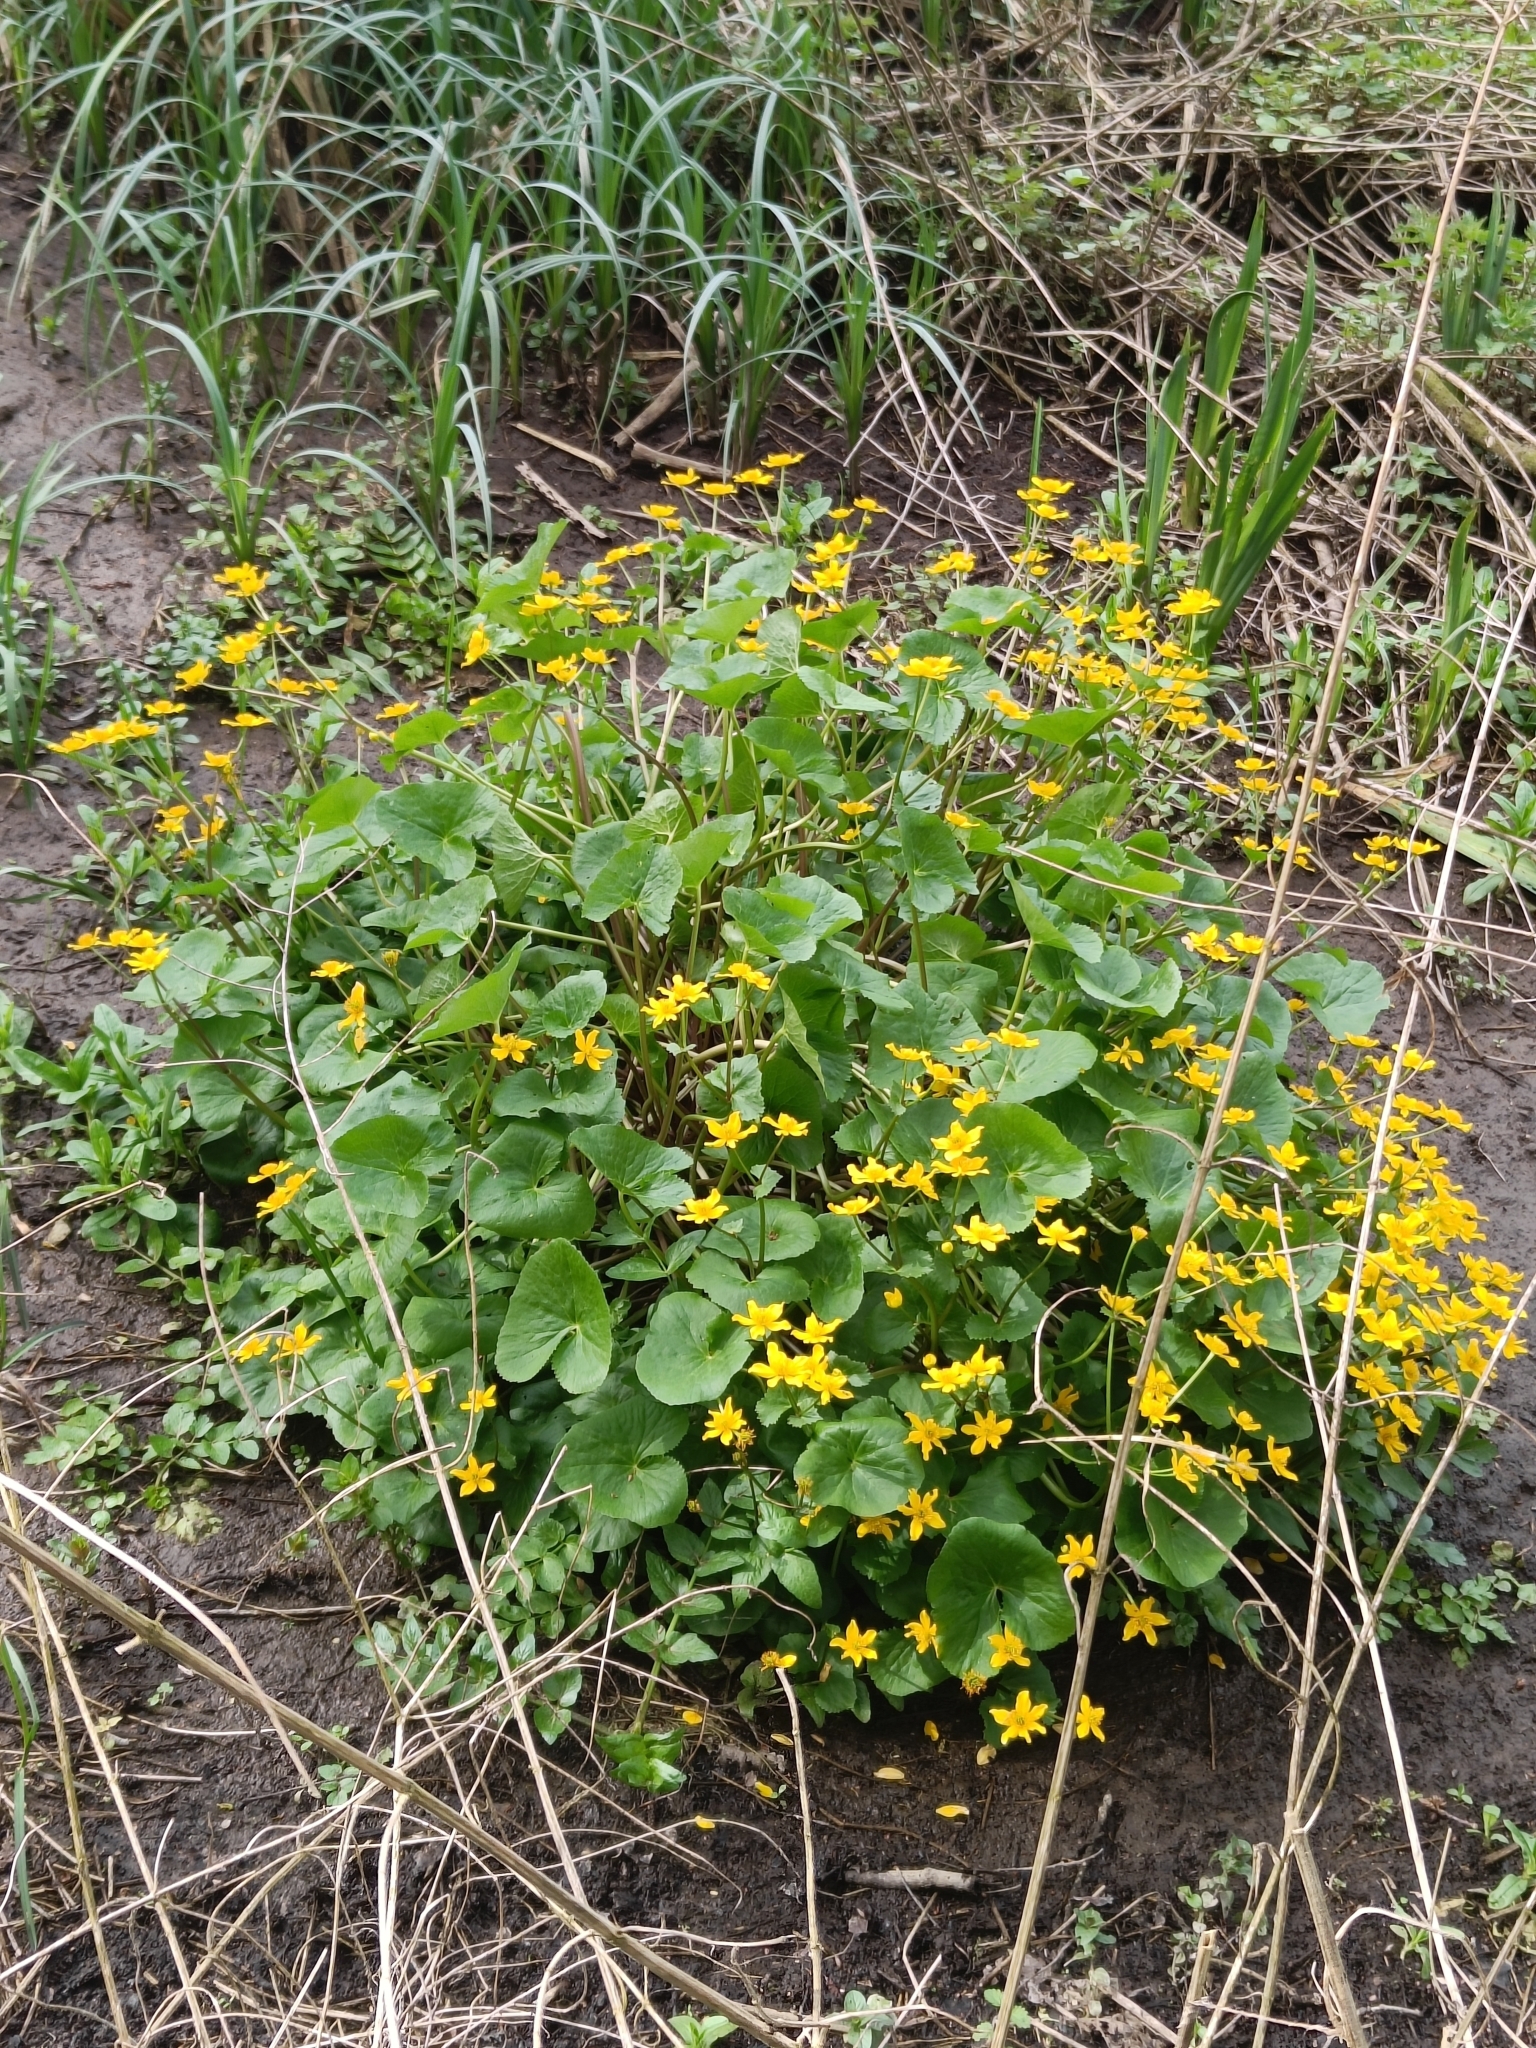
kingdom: Plantae
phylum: Tracheophyta
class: Magnoliopsida
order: Ranunculales
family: Ranunculaceae
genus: Caltha
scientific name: Caltha palustris
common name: Marsh marigold
